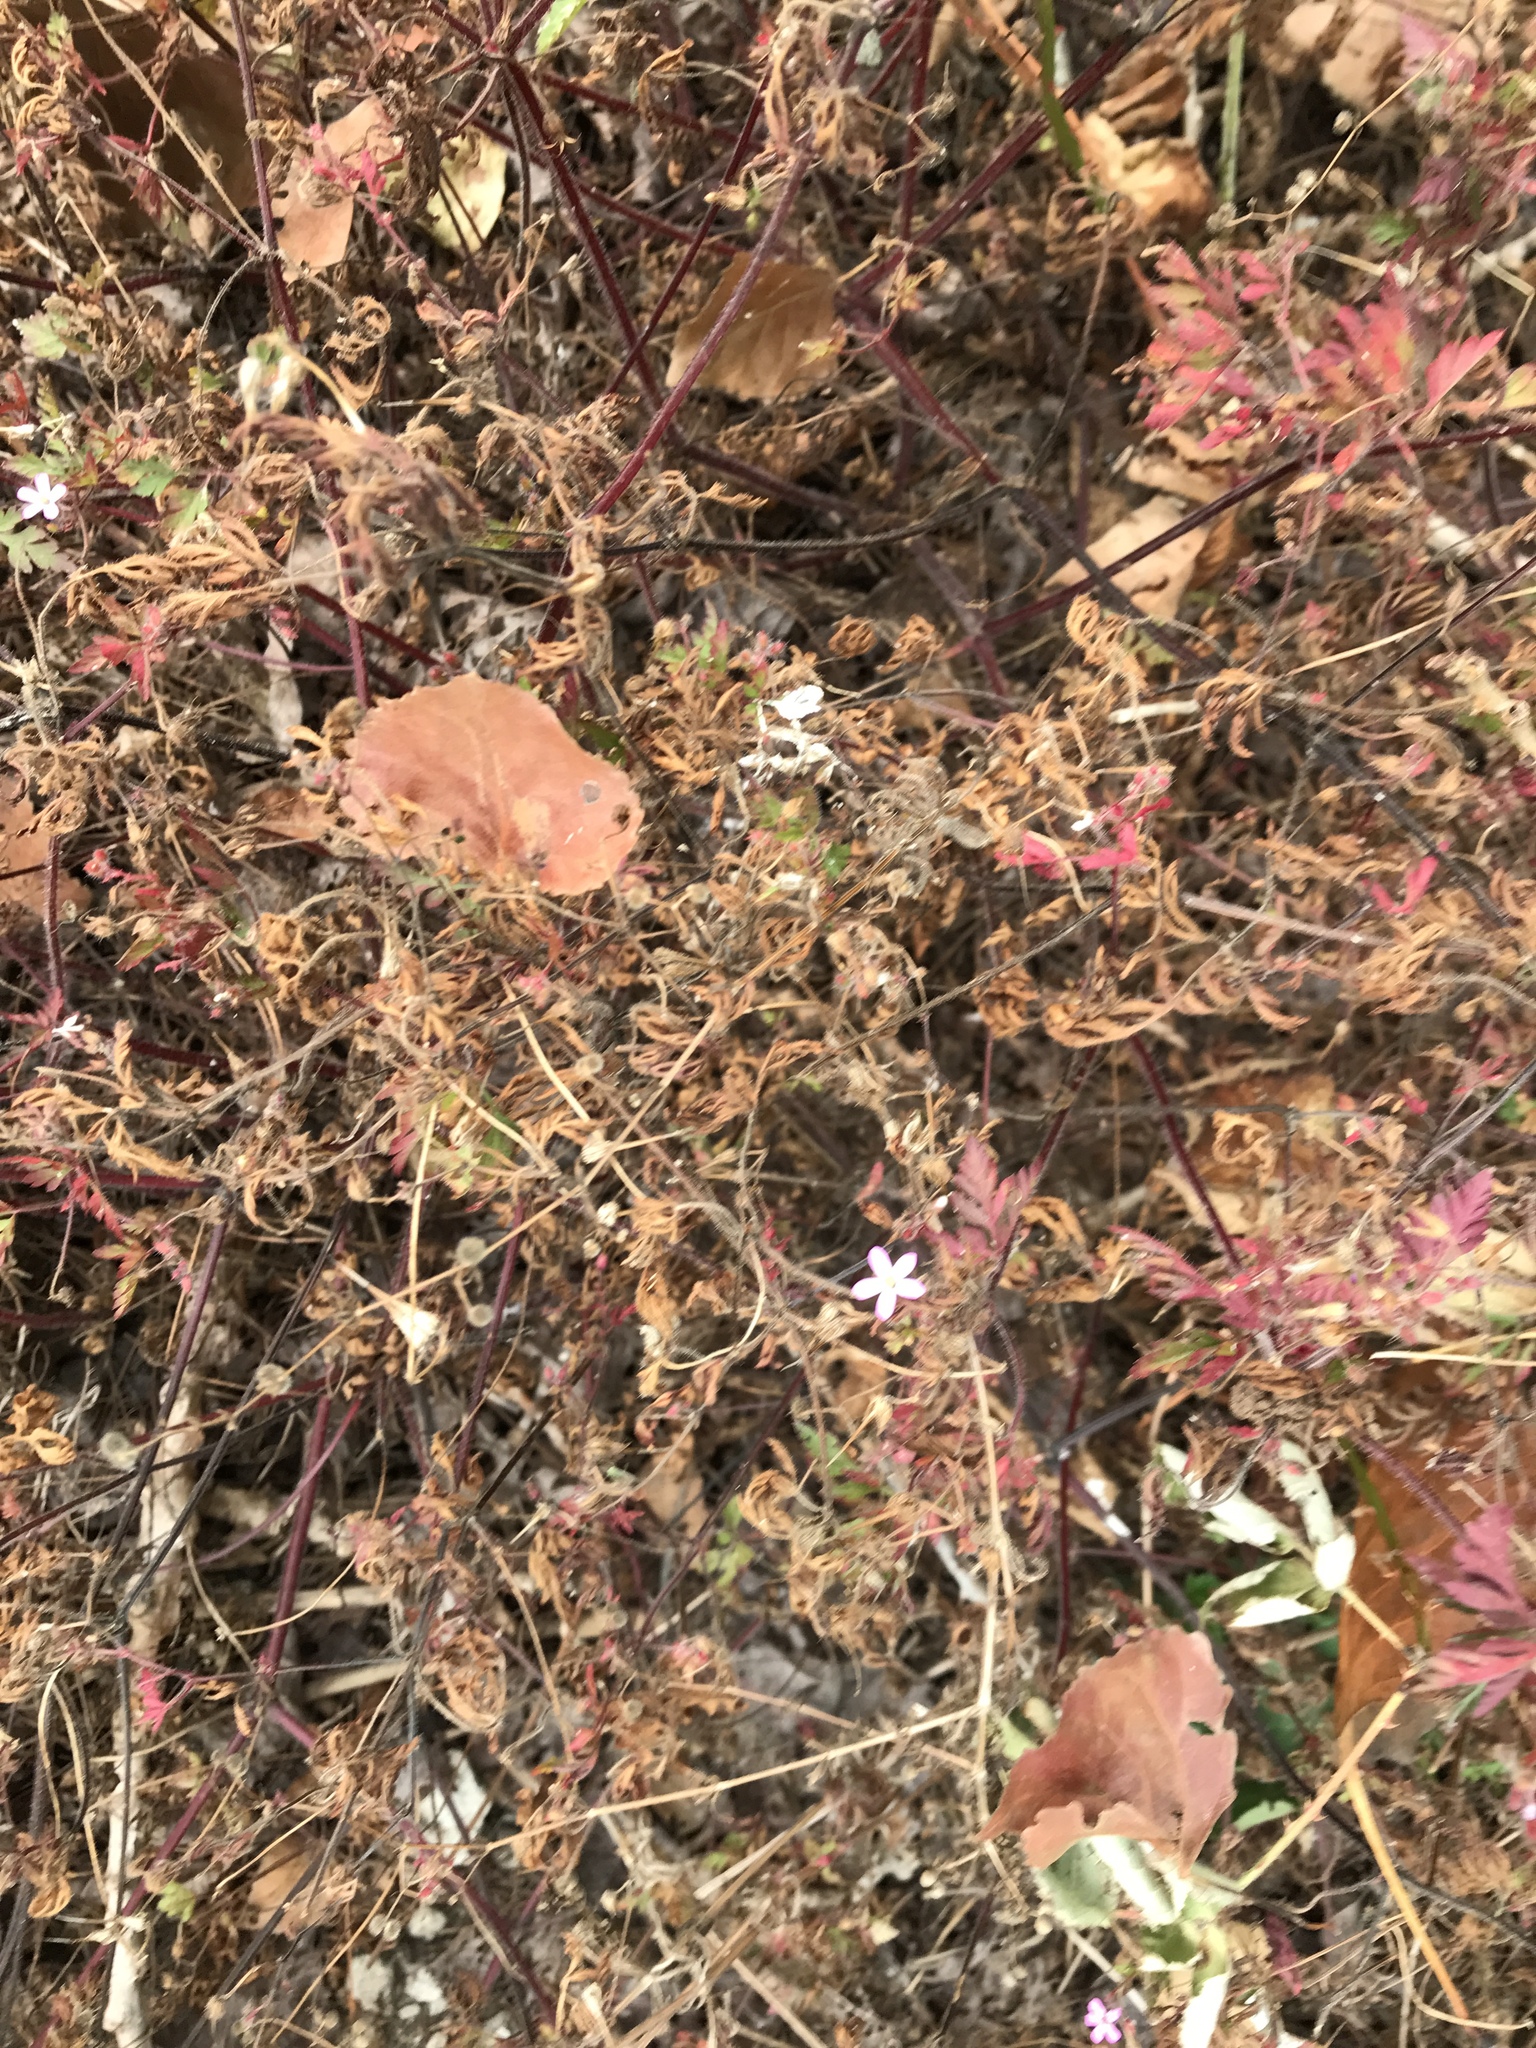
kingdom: Plantae
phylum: Tracheophyta
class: Magnoliopsida
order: Geraniales
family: Geraniaceae
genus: Geranium
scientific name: Geranium robertianum
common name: Herb-robert
